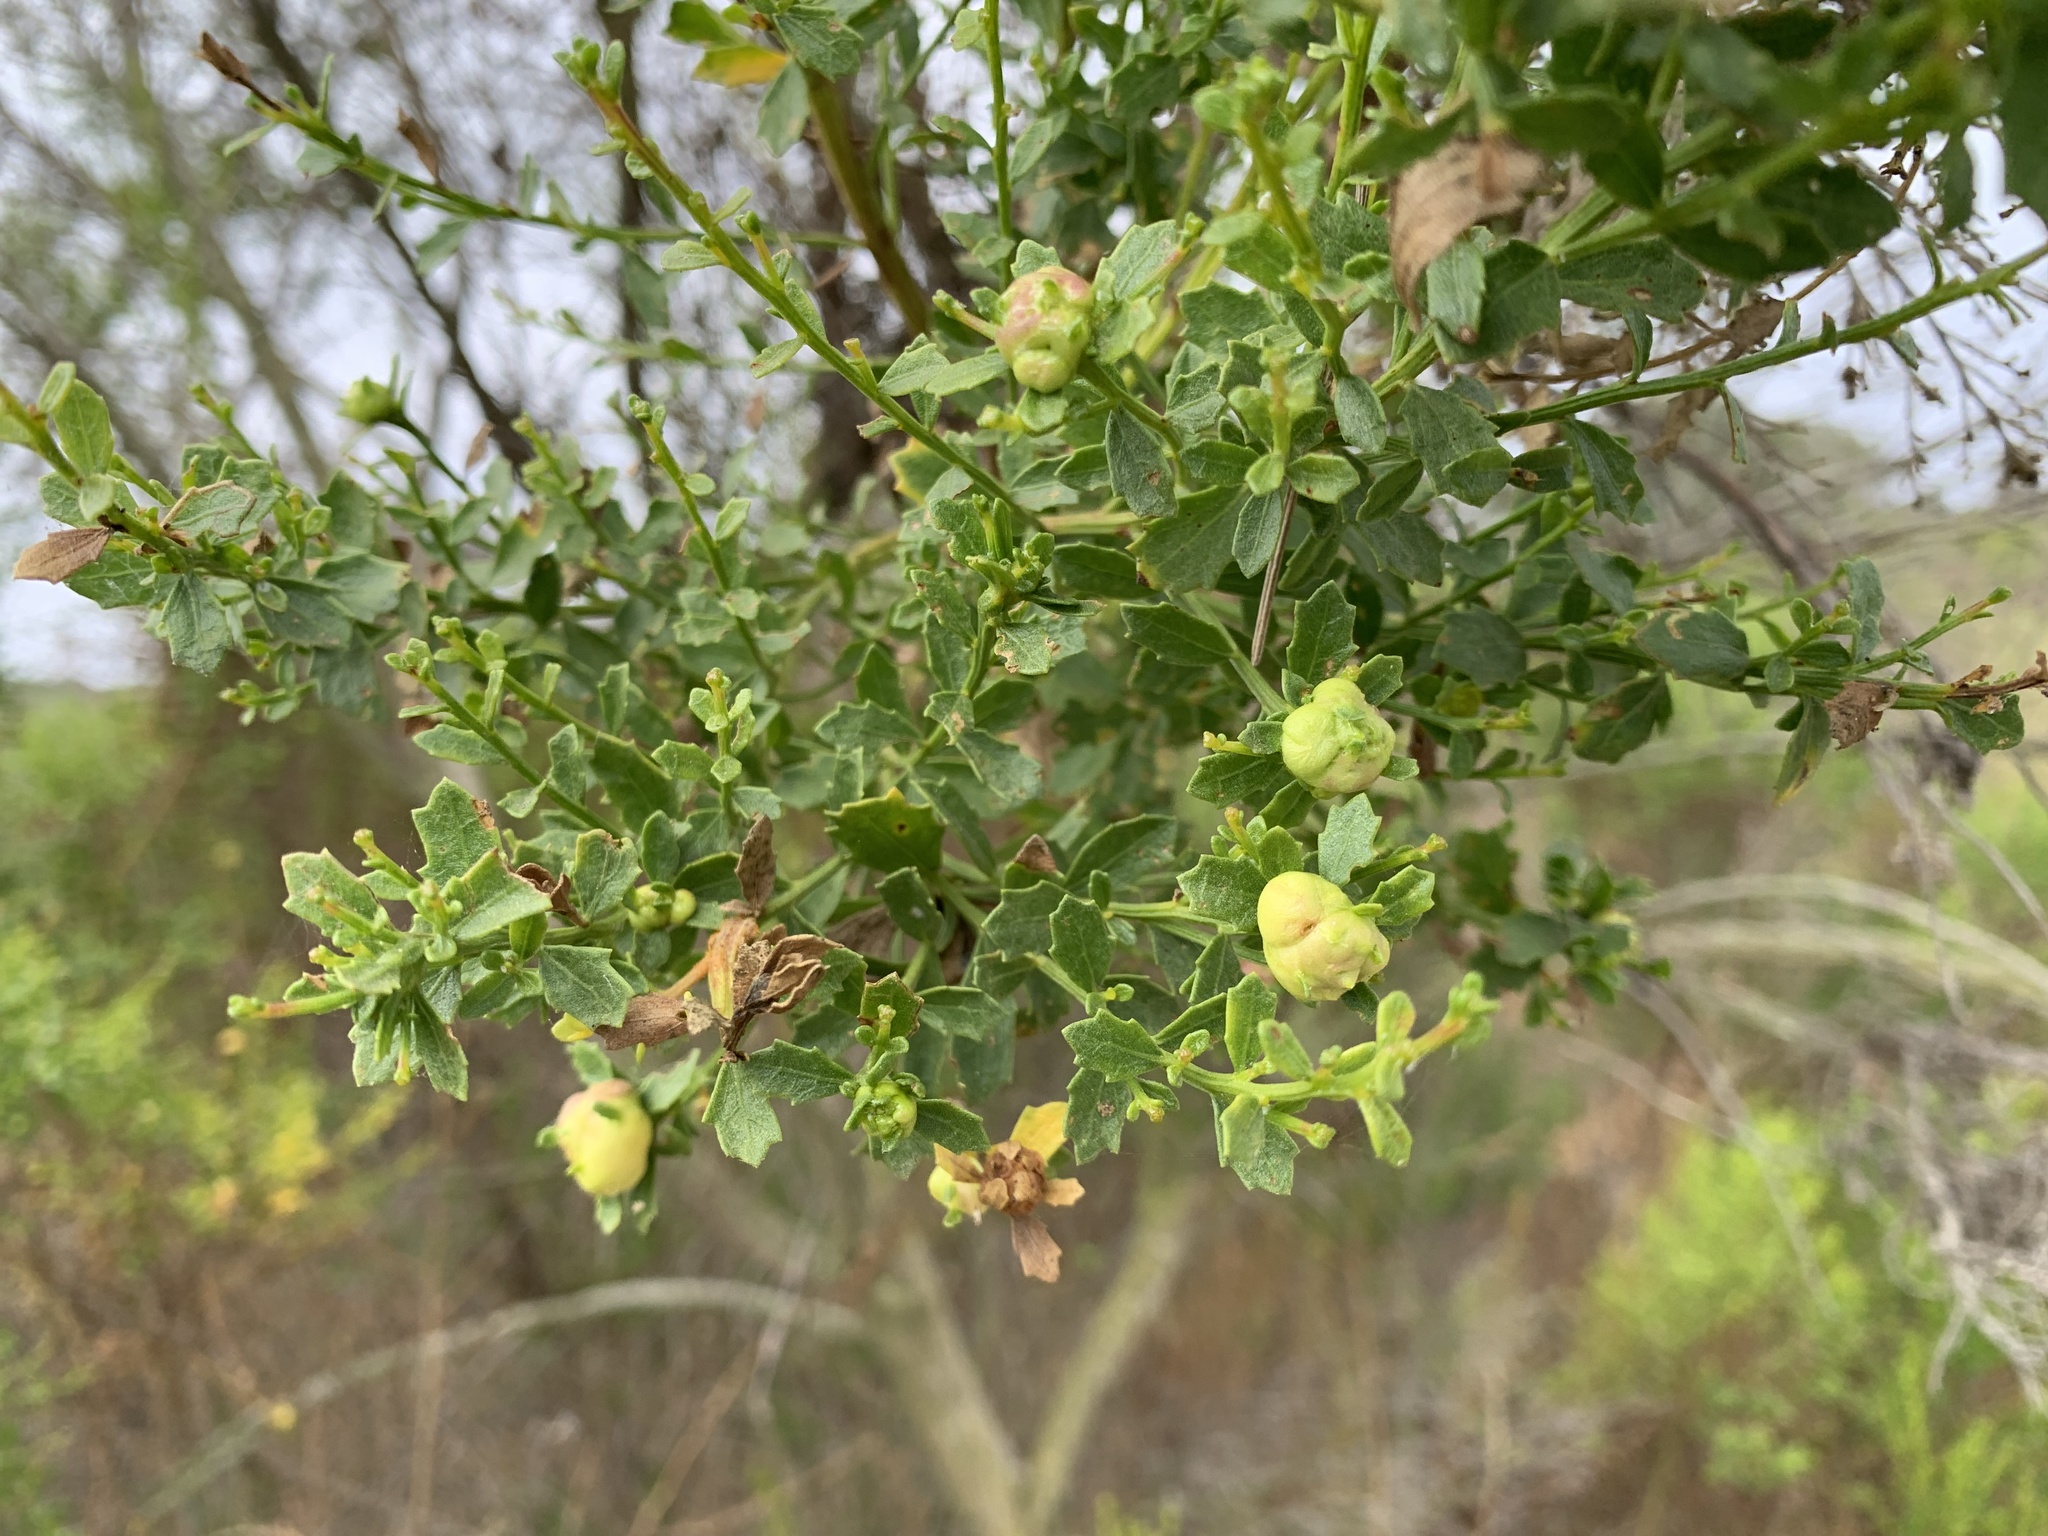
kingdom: Plantae
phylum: Tracheophyta
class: Magnoliopsida
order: Asterales
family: Asteraceae
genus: Baccharis
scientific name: Baccharis pilularis
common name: Coyotebrush
